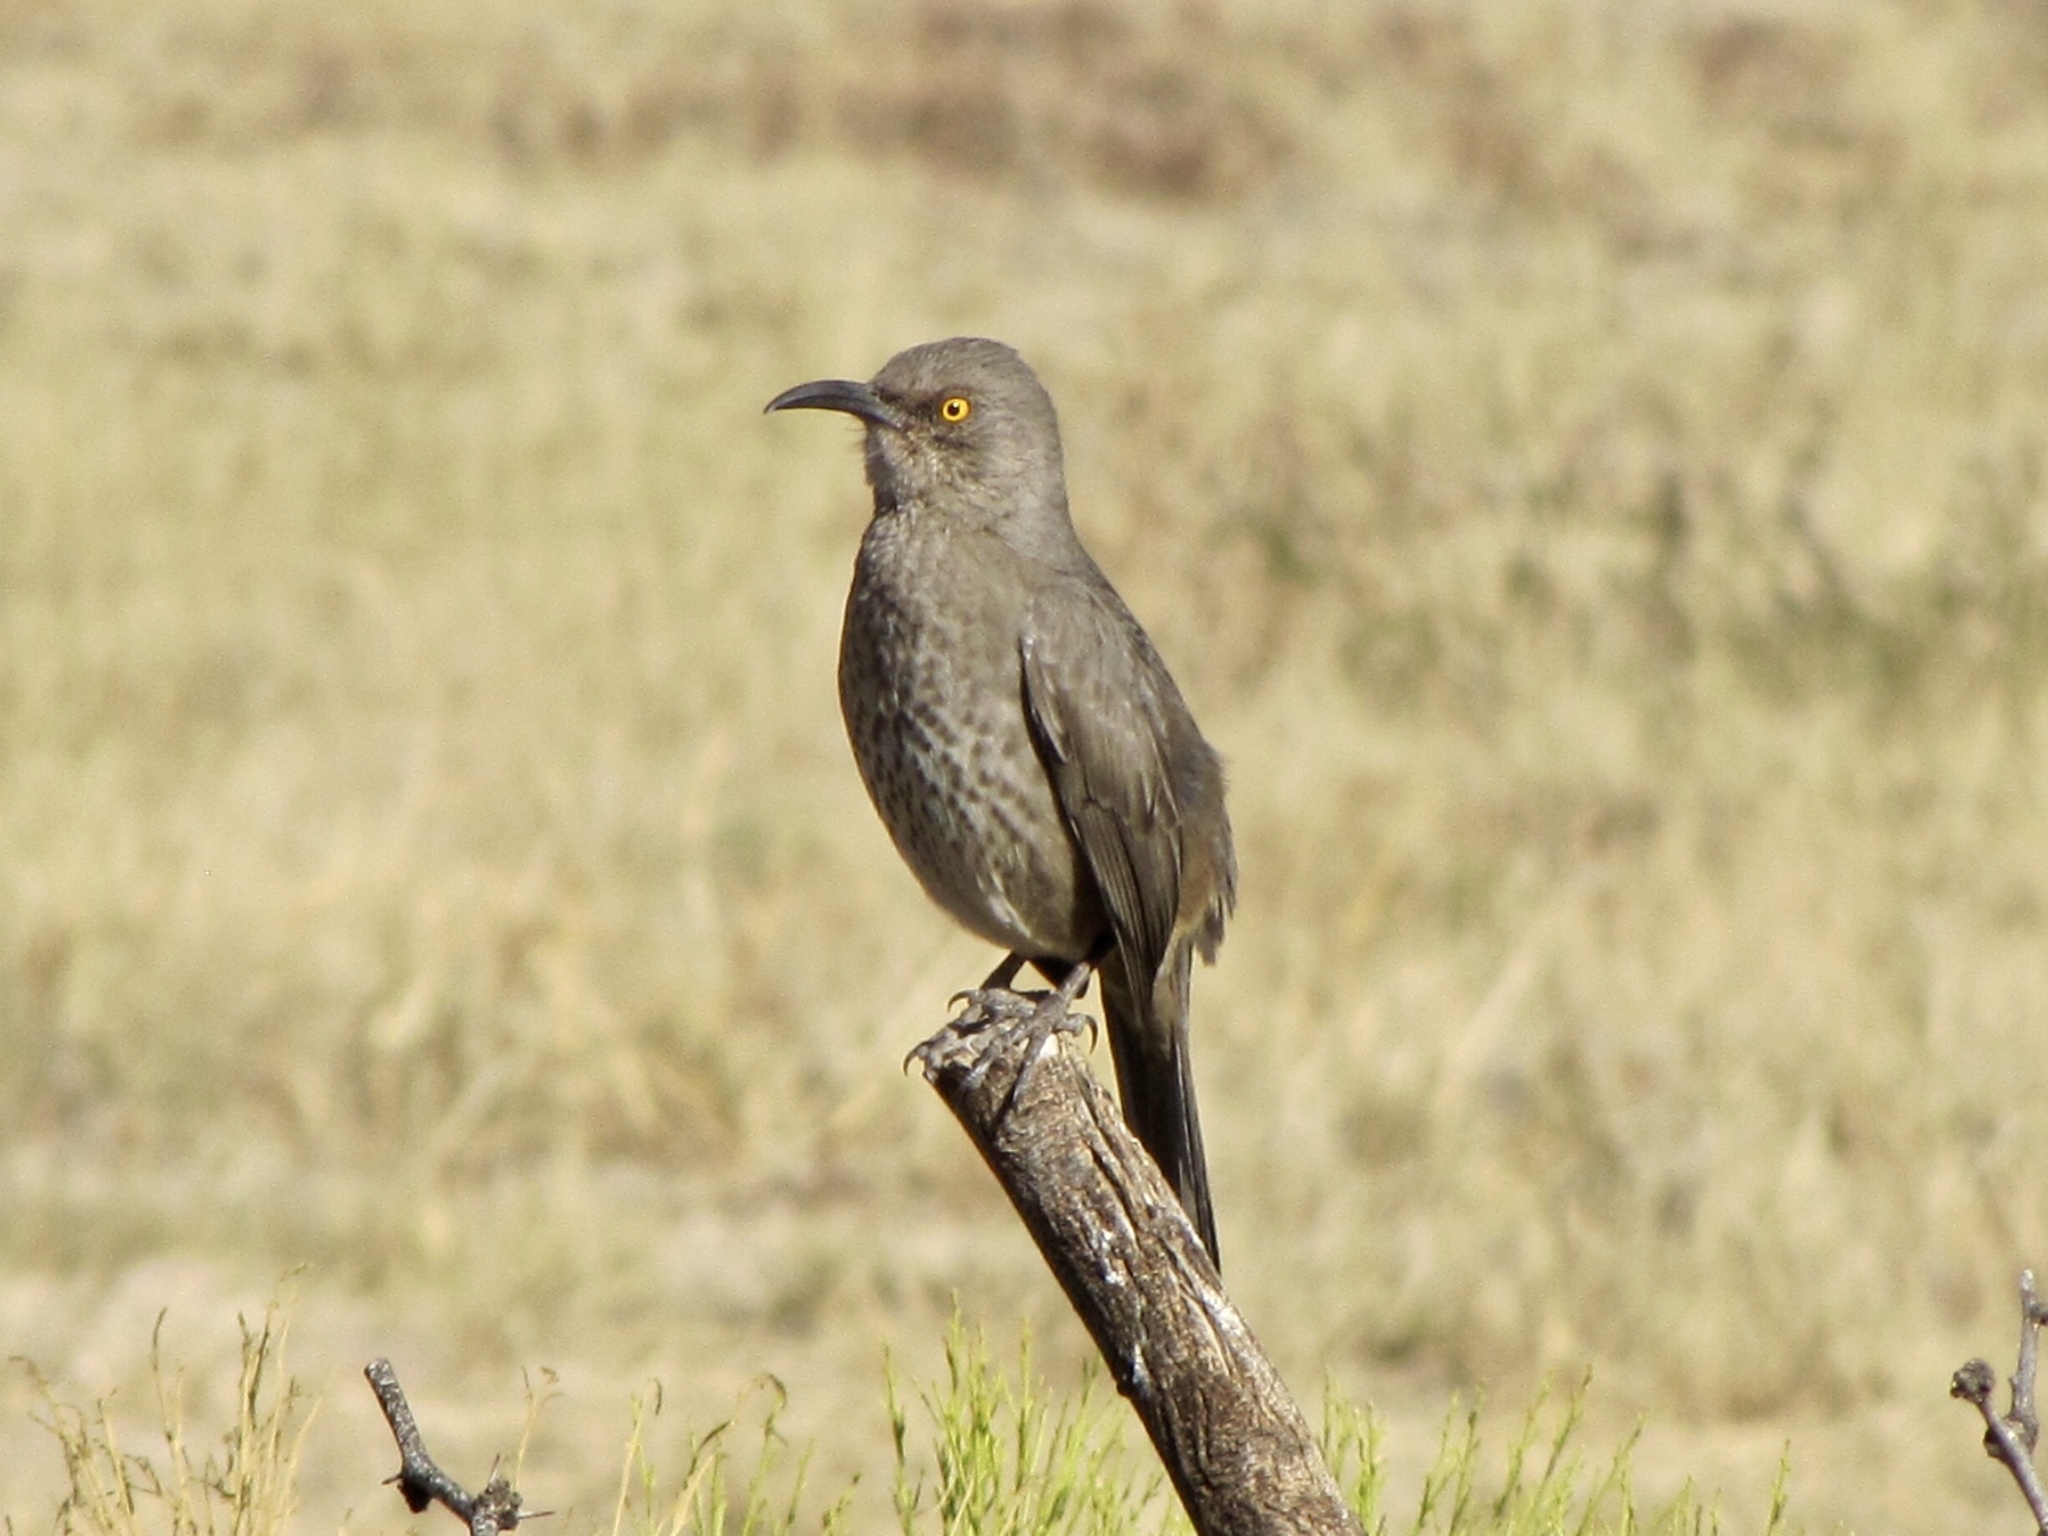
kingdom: Animalia
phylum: Chordata
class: Aves
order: Passeriformes
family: Mimidae
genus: Toxostoma
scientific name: Toxostoma curvirostre
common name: Curve-billed thrasher
